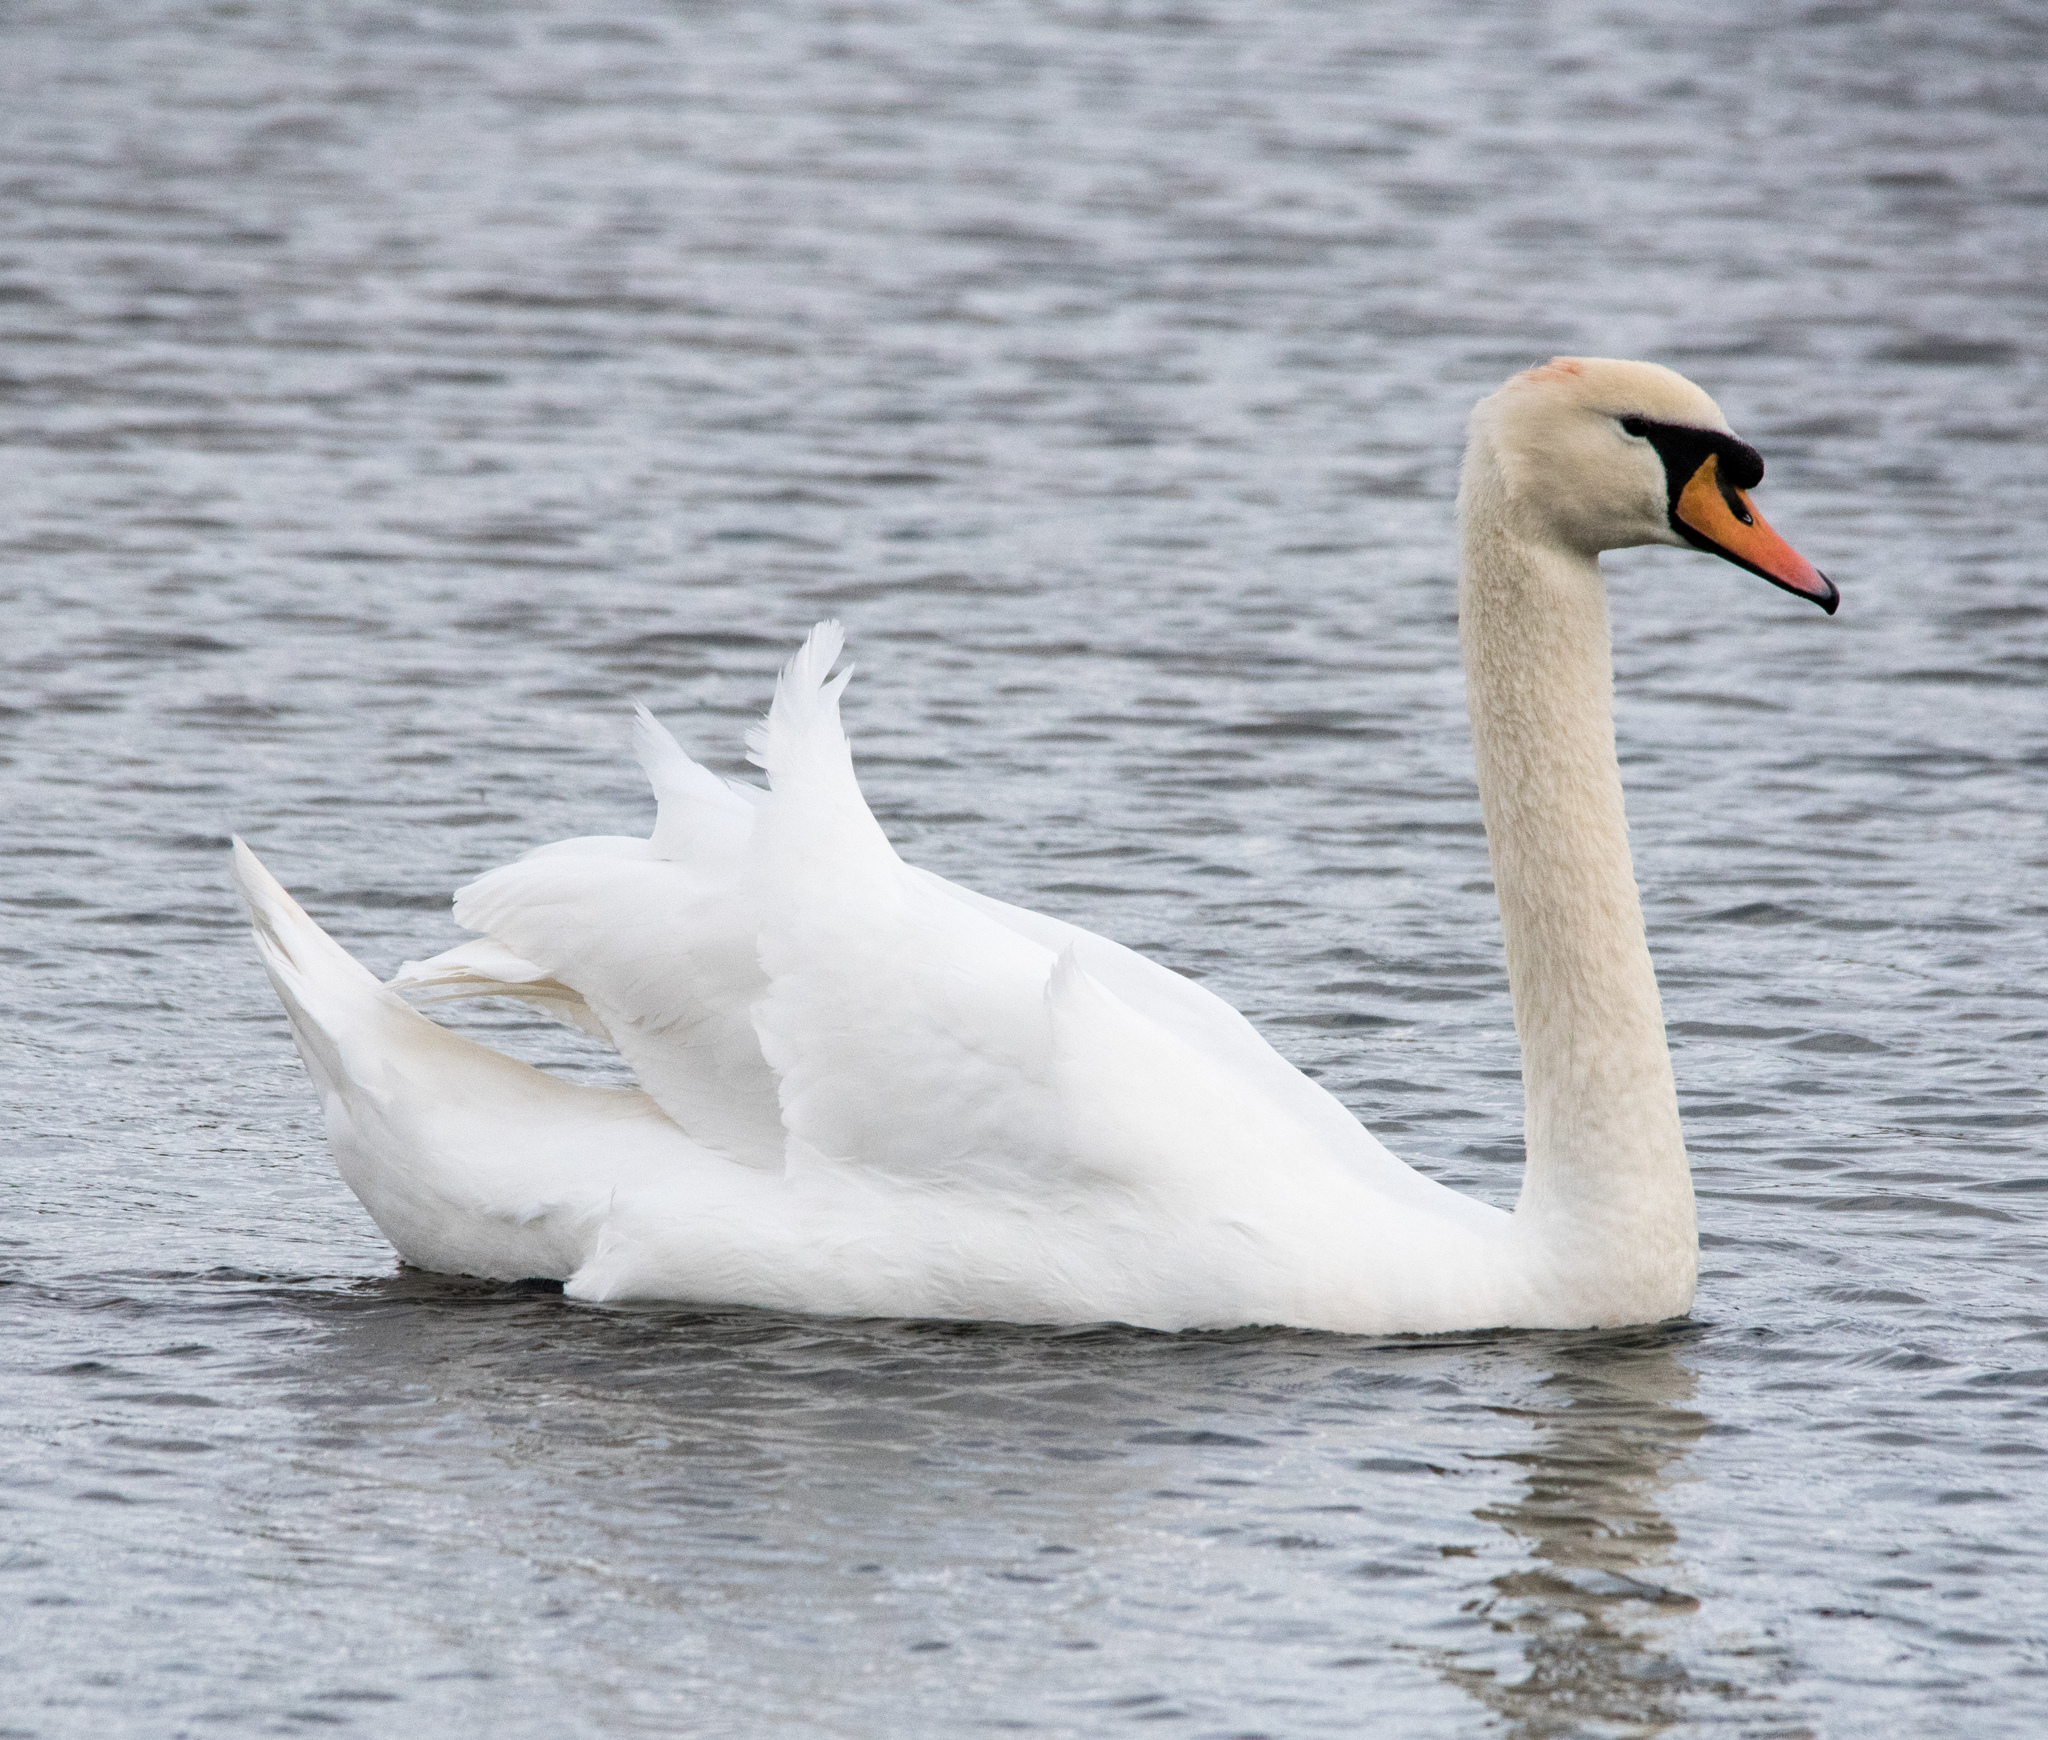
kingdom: Animalia
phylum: Chordata
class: Aves
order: Anseriformes
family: Anatidae
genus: Cygnus
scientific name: Cygnus olor
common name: Mute swan
